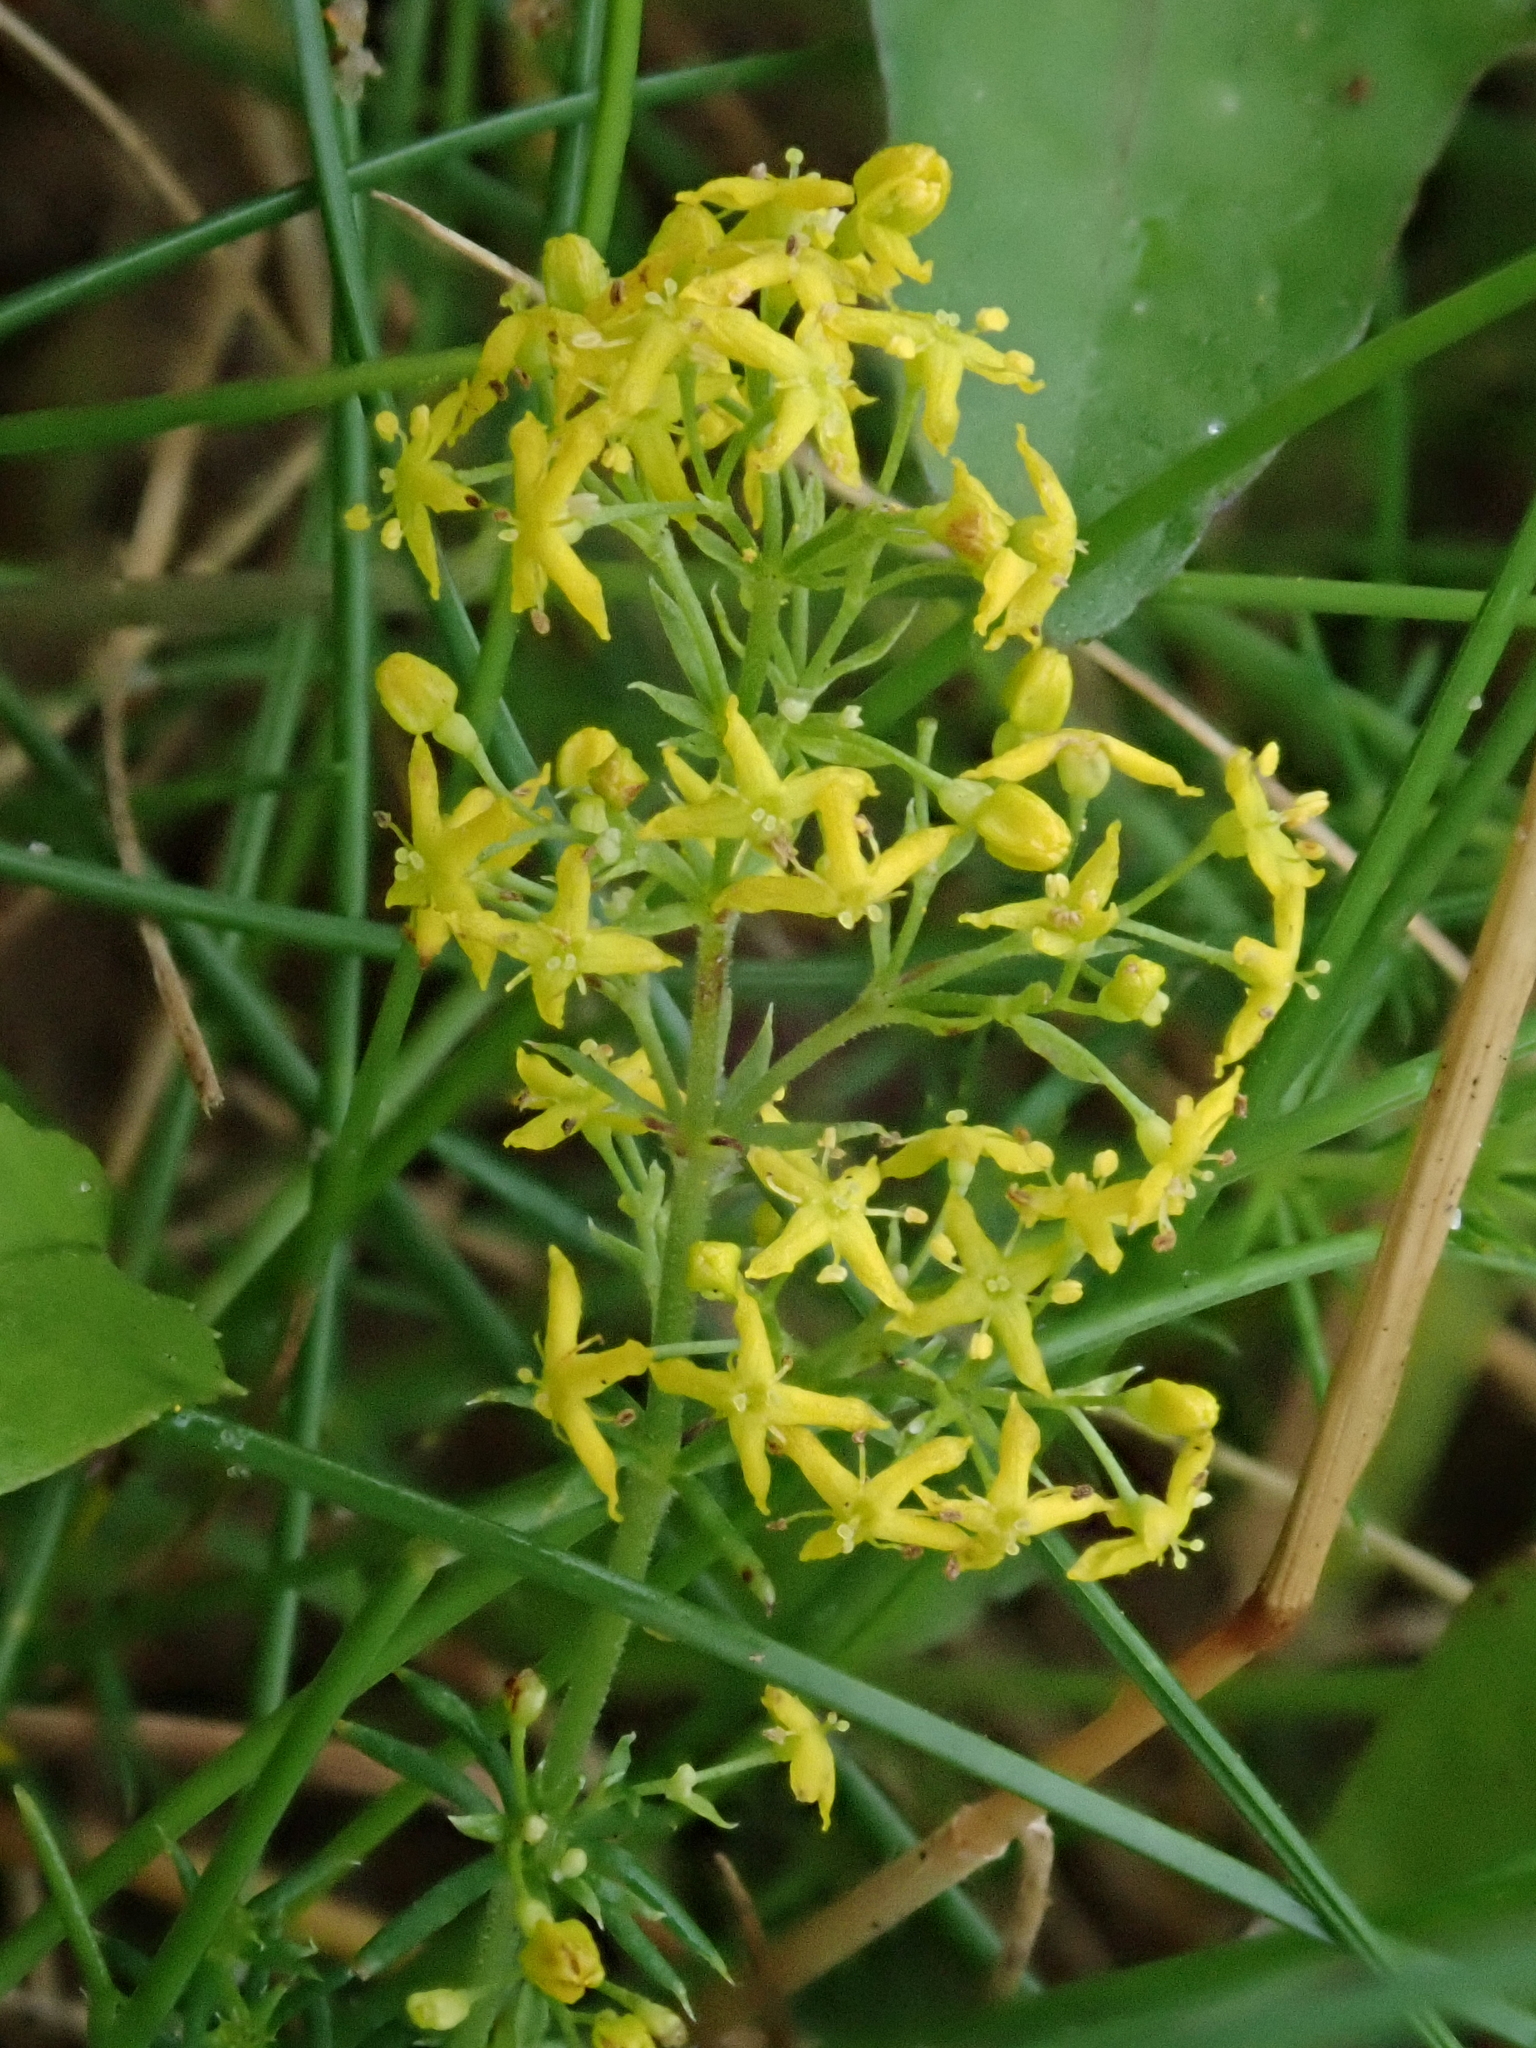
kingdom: Plantae
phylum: Tracheophyta
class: Magnoliopsida
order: Gentianales
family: Rubiaceae
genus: Galium
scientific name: Galium verum
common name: Lady's bedstraw
